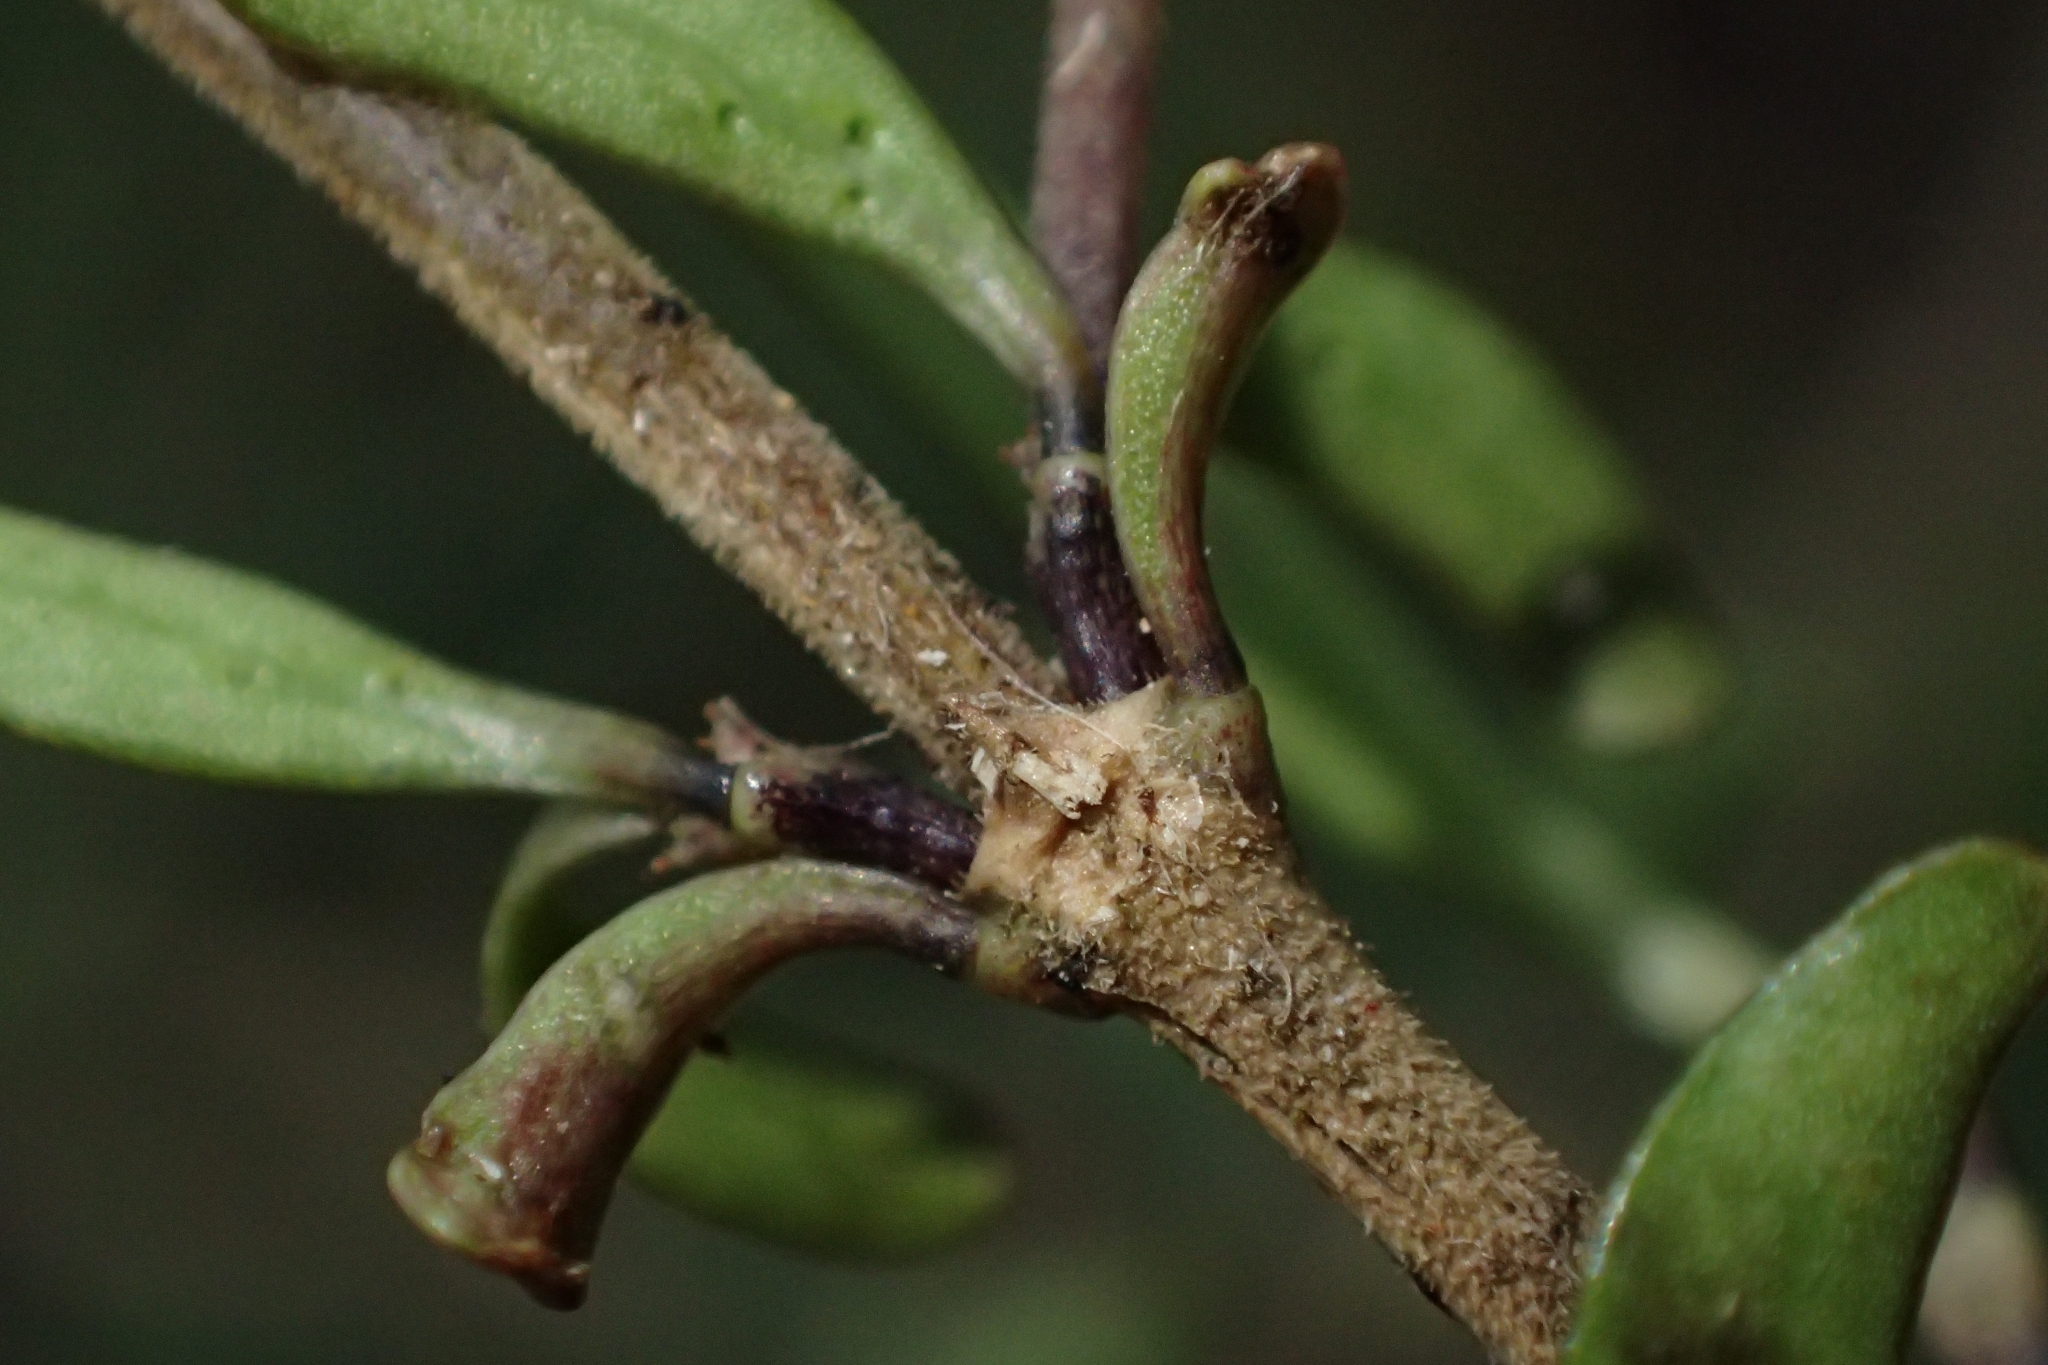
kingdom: Plantae
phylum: Tracheophyta
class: Magnoliopsida
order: Gentianales
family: Rubiaceae
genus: Coprosma
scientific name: Coprosma colensoi
